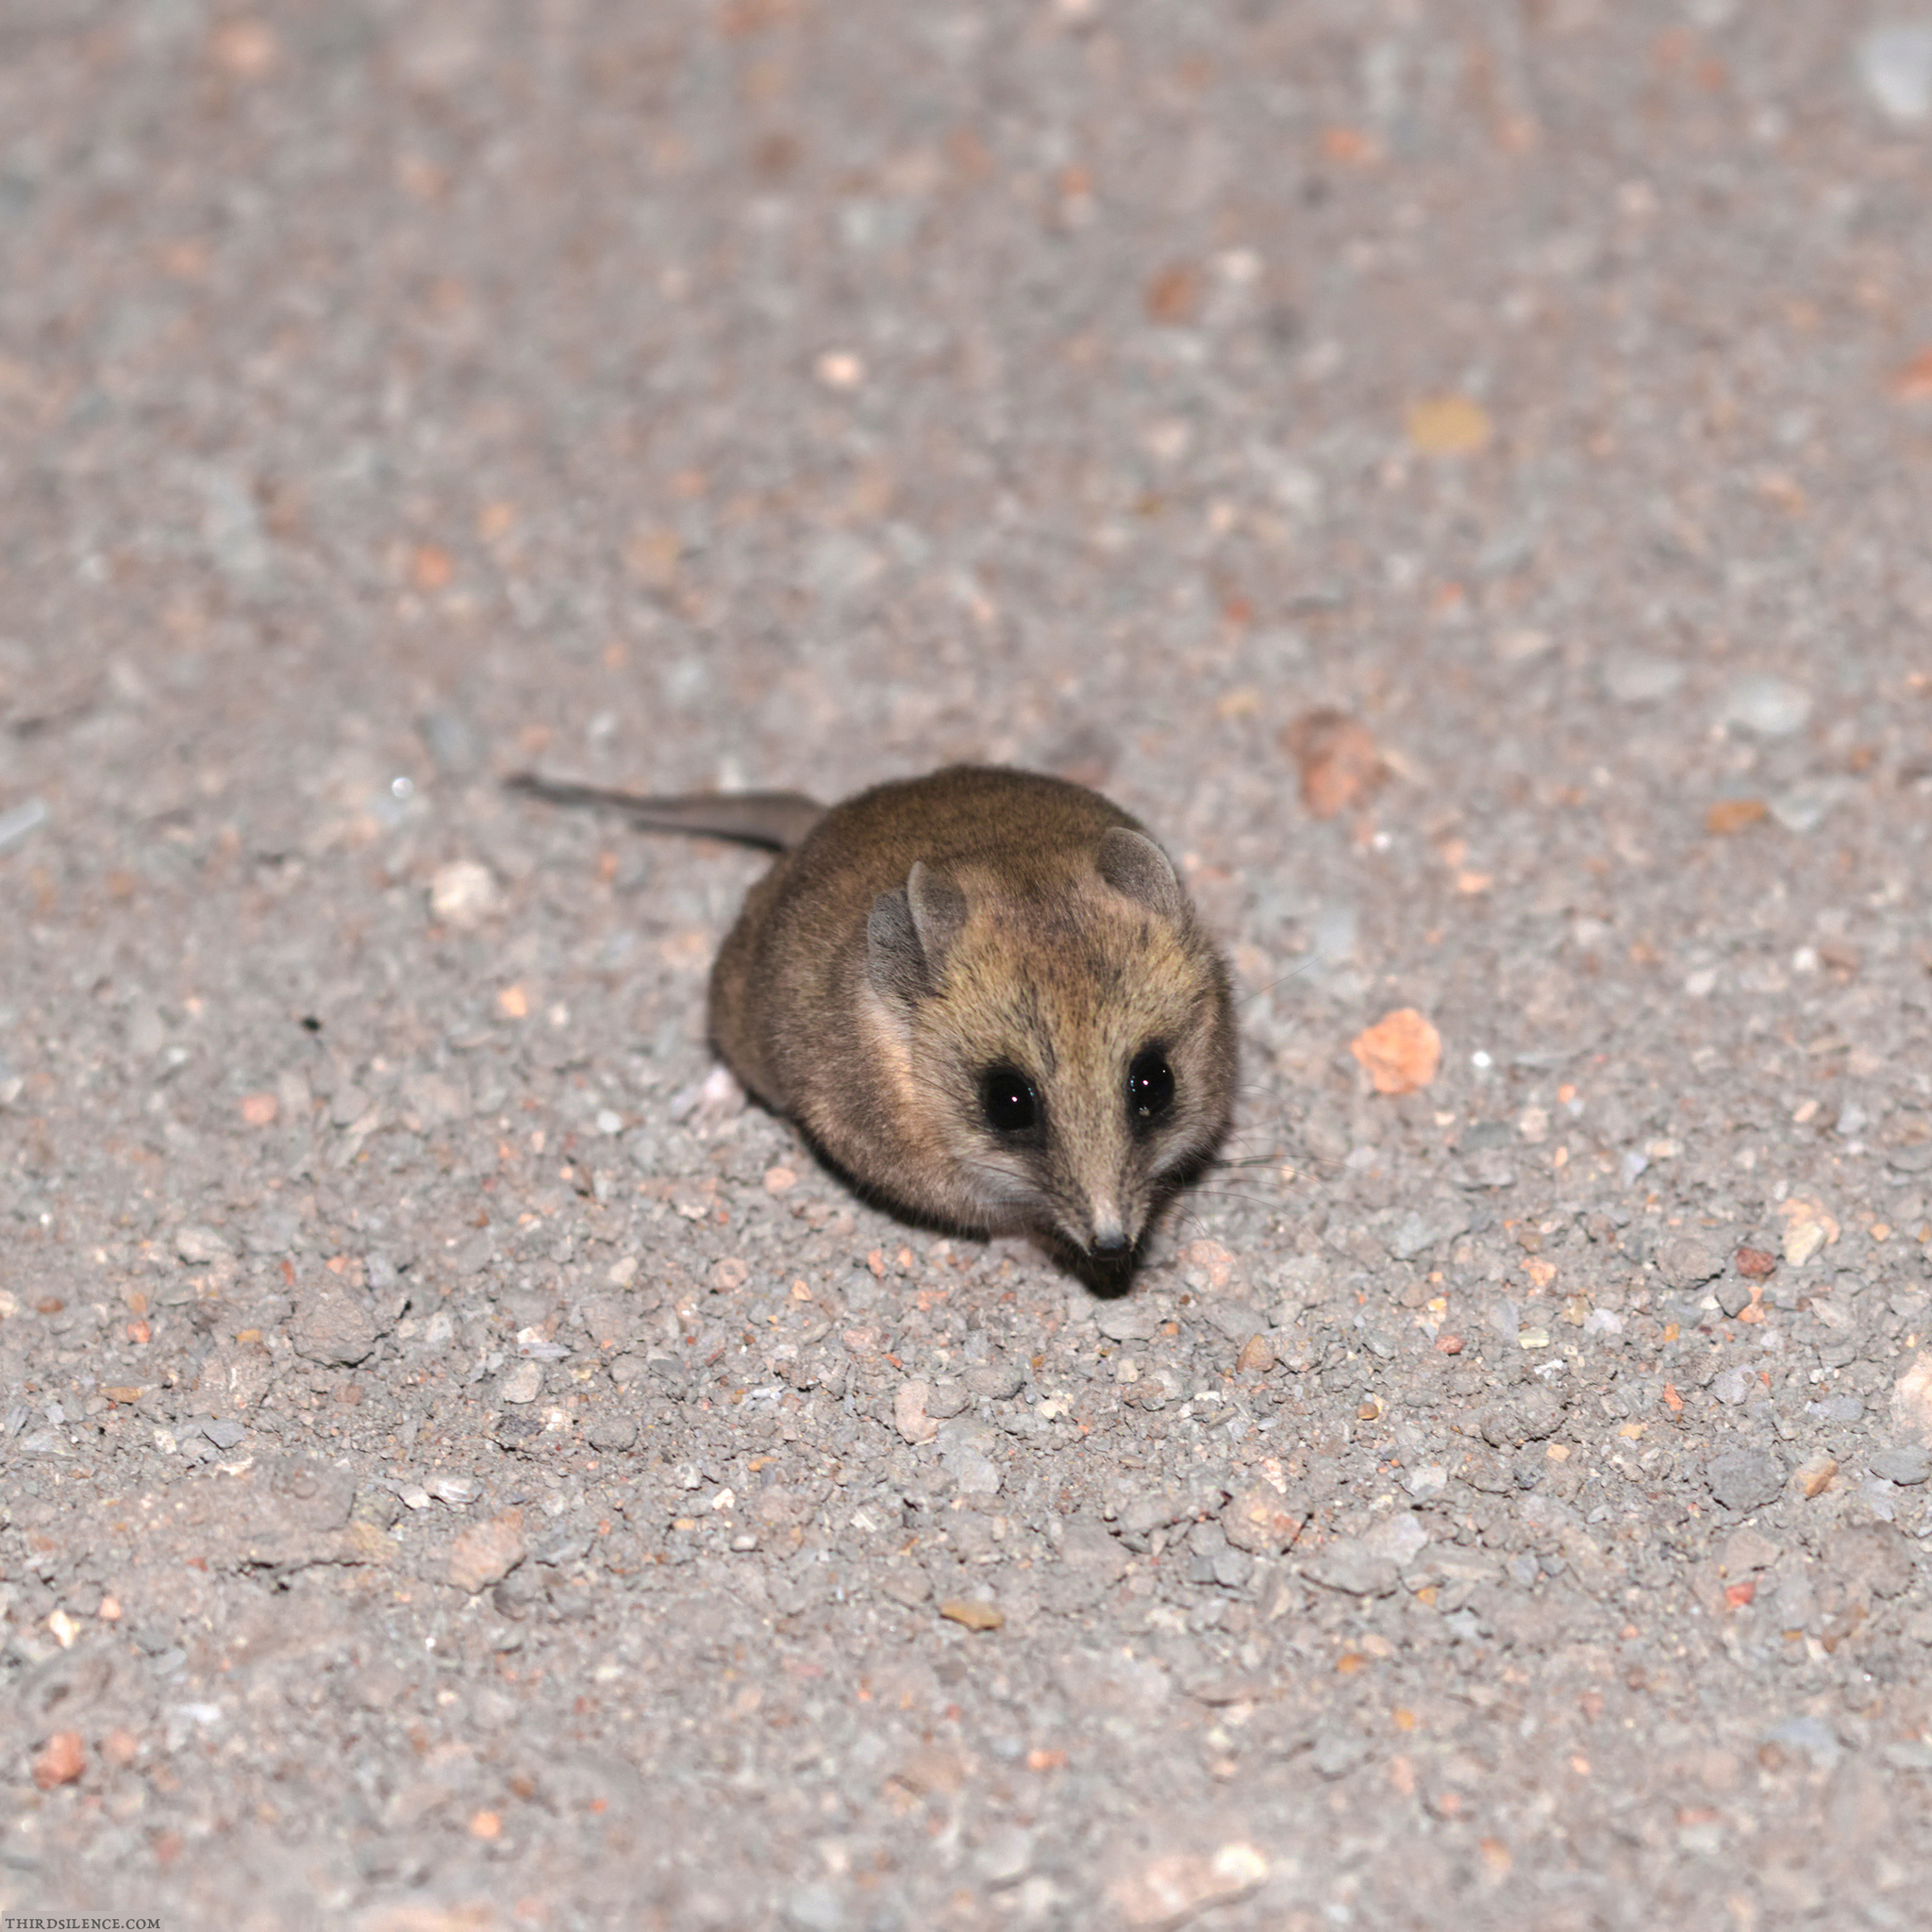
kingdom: Animalia
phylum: Chordata
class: Mammalia
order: Dasyuromorphia
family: Dasyuridae
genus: Sminthopsis
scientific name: Sminthopsis crassicaudata
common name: Fat-tailed dunnart
